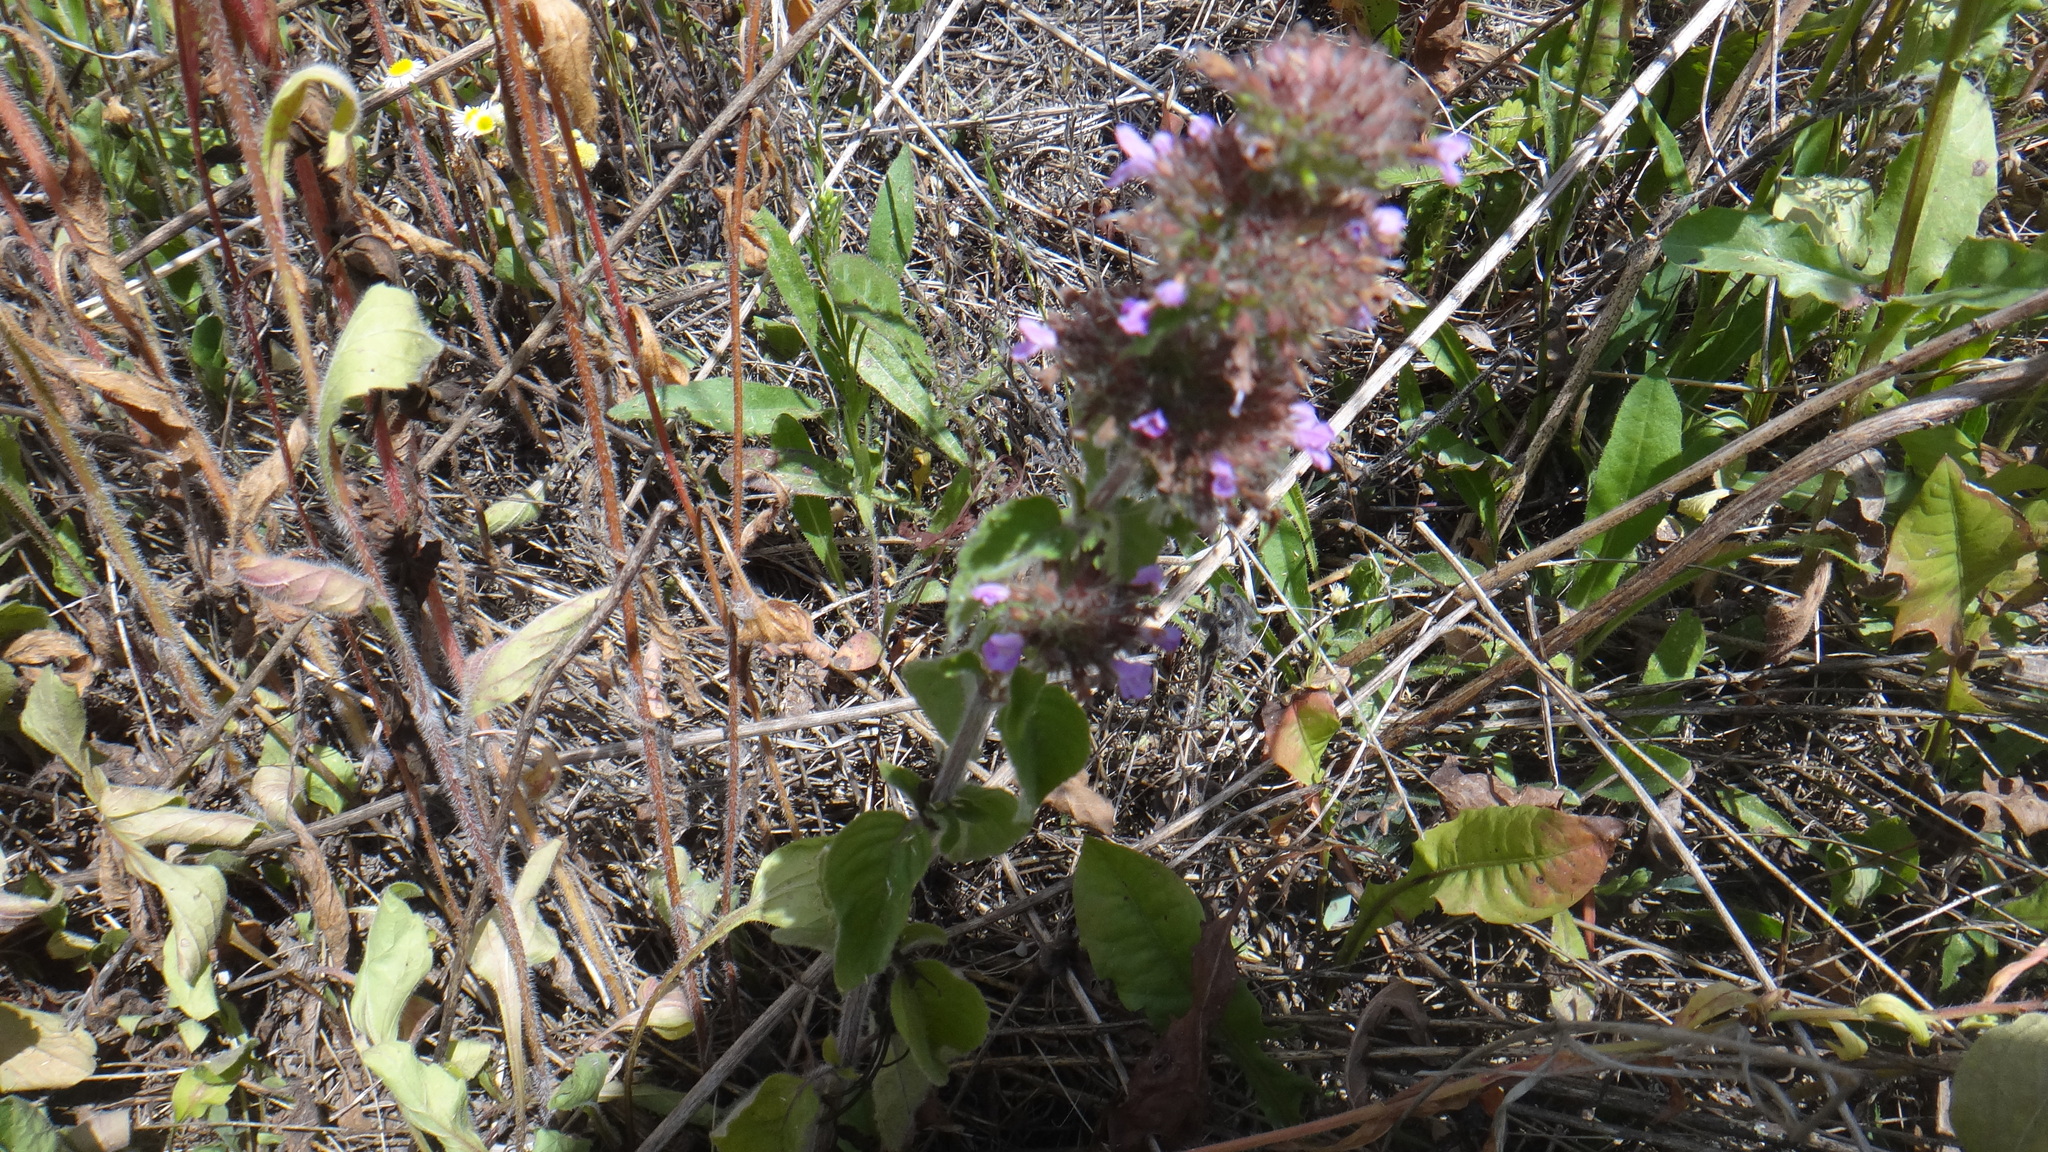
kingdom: Plantae
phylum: Tracheophyta
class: Magnoliopsida
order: Lamiales
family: Lamiaceae
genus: Clinopodium
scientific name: Clinopodium vulgare
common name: Wild basil
